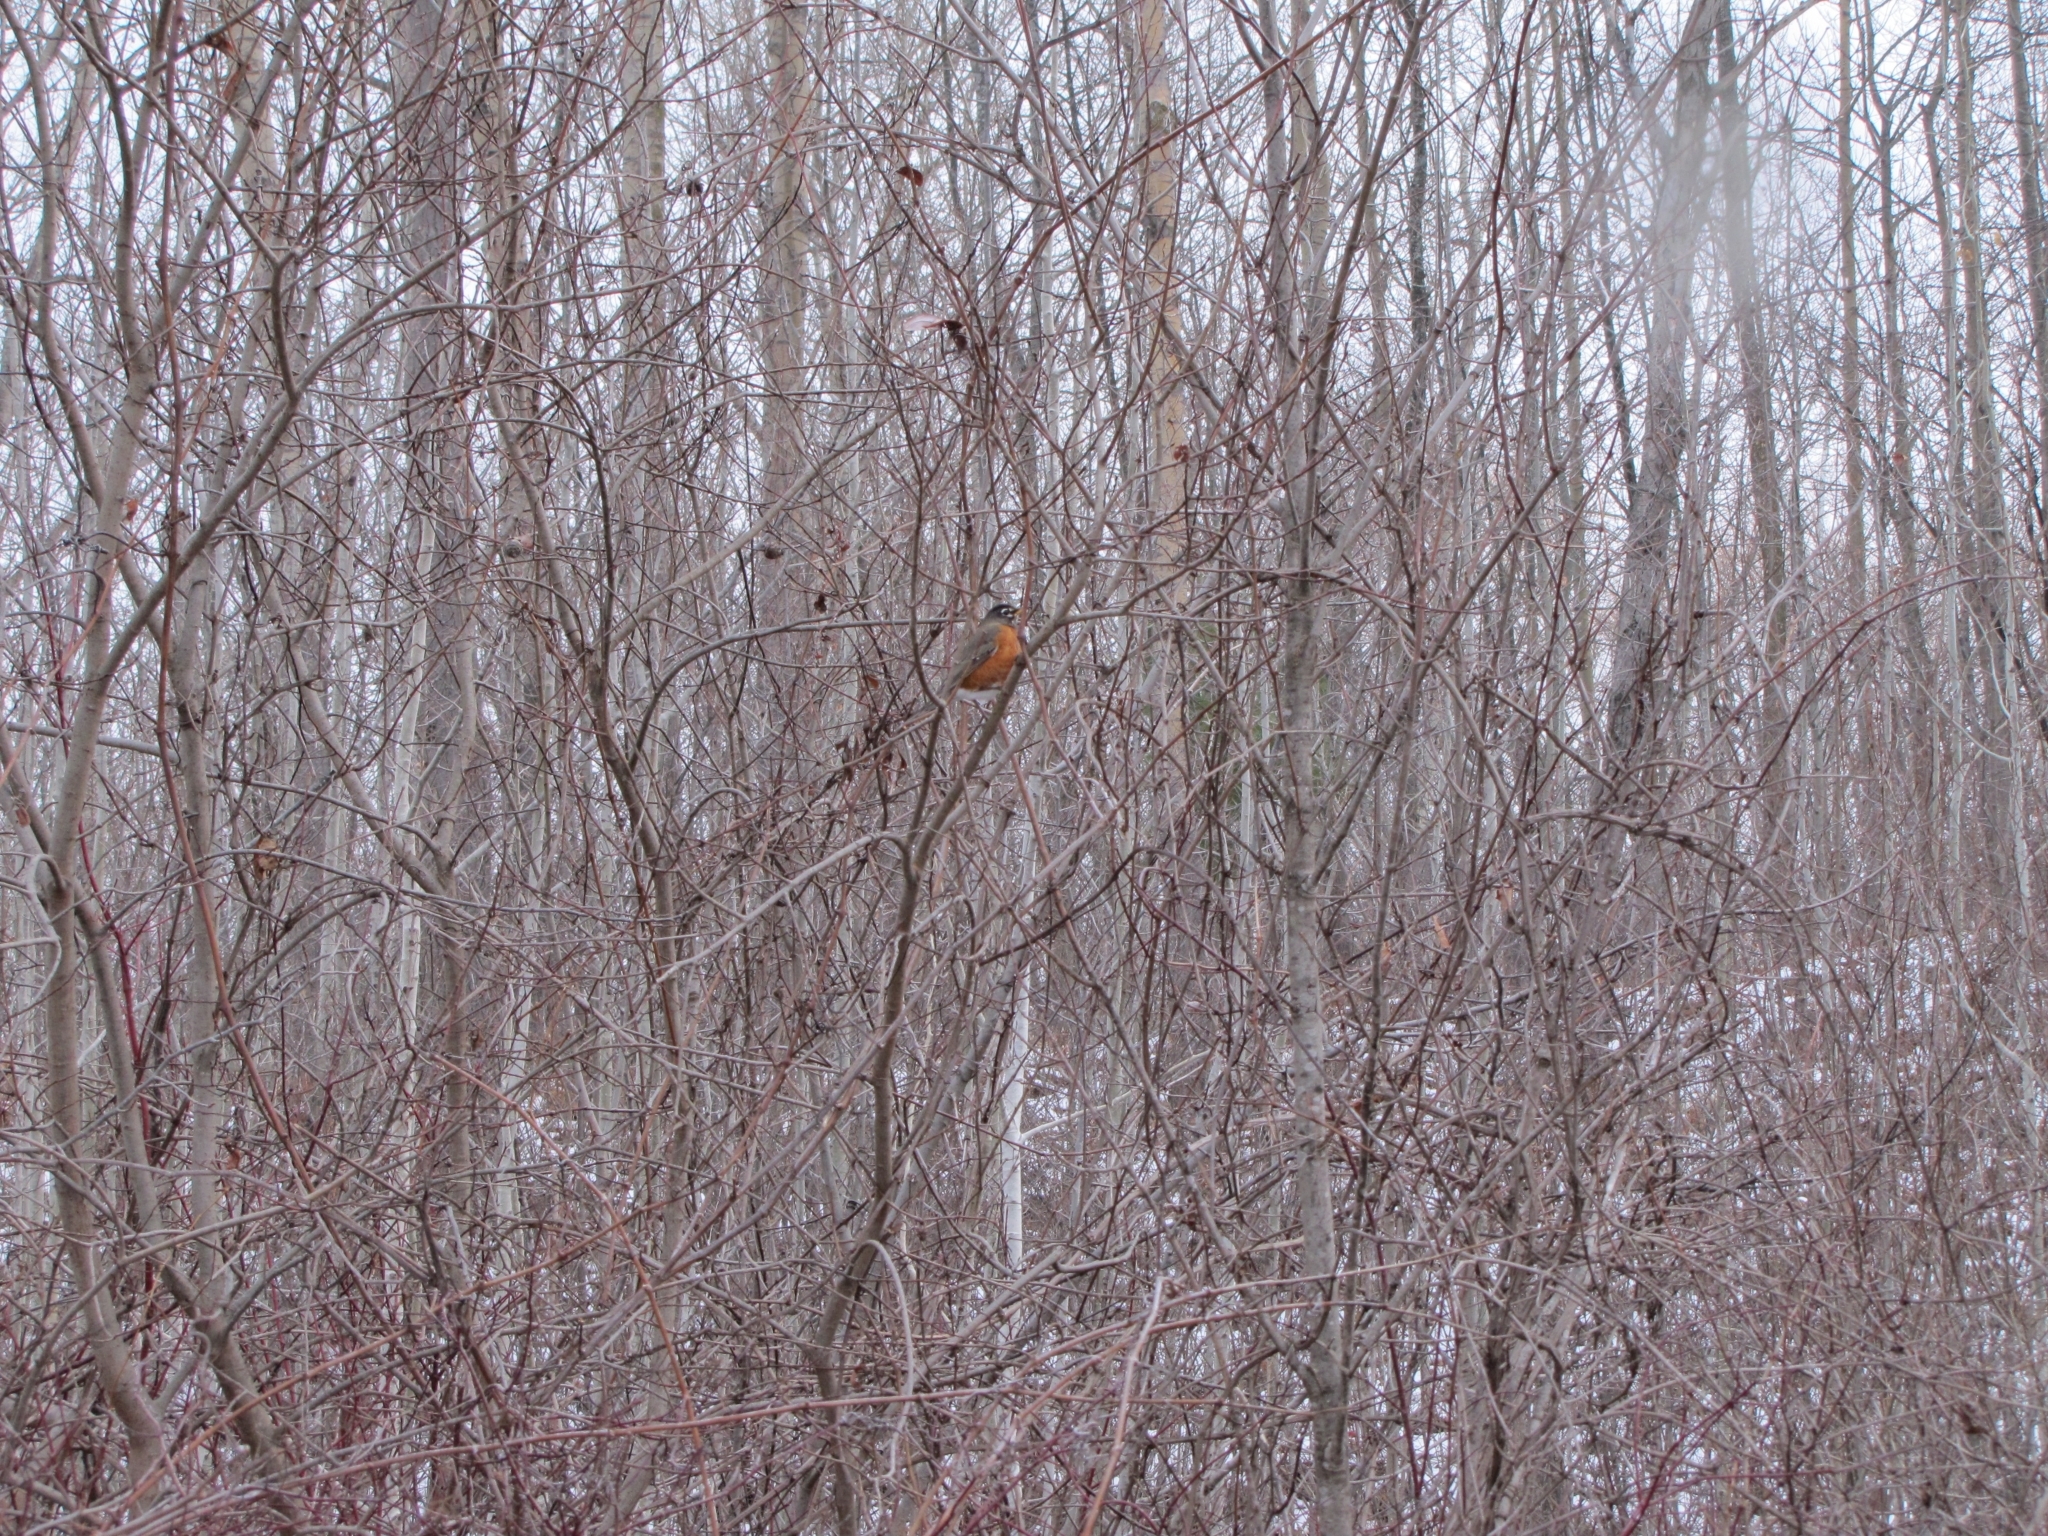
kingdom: Animalia
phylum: Chordata
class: Aves
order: Passeriformes
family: Turdidae
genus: Turdus
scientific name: Turdus migratorius
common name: American robin
